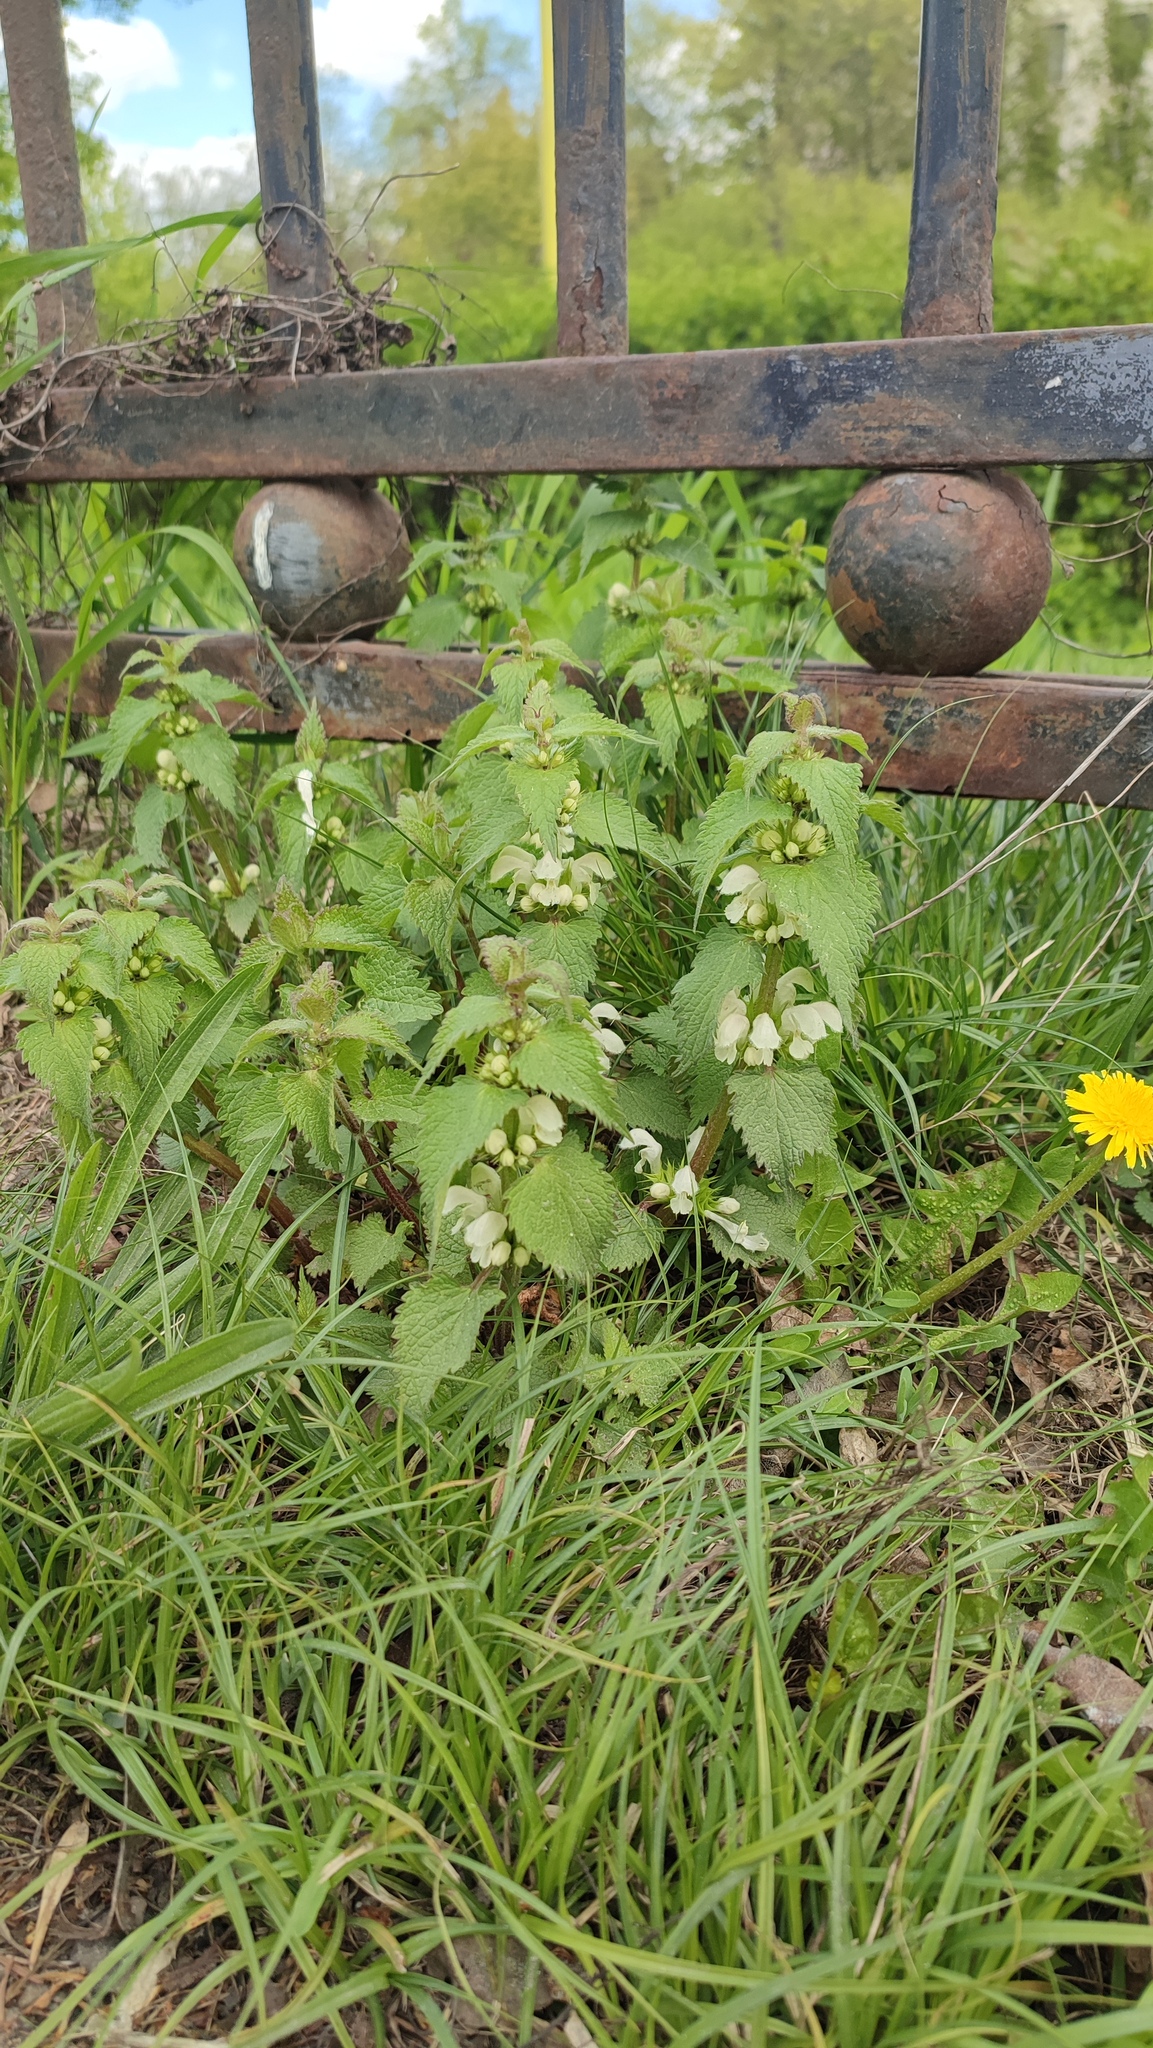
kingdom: Plantae
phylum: Tracheophyta
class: Magnoliopsida
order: Lamiales
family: Lamiaceae
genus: Lamium
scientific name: Lamium album
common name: White dead-nettle
